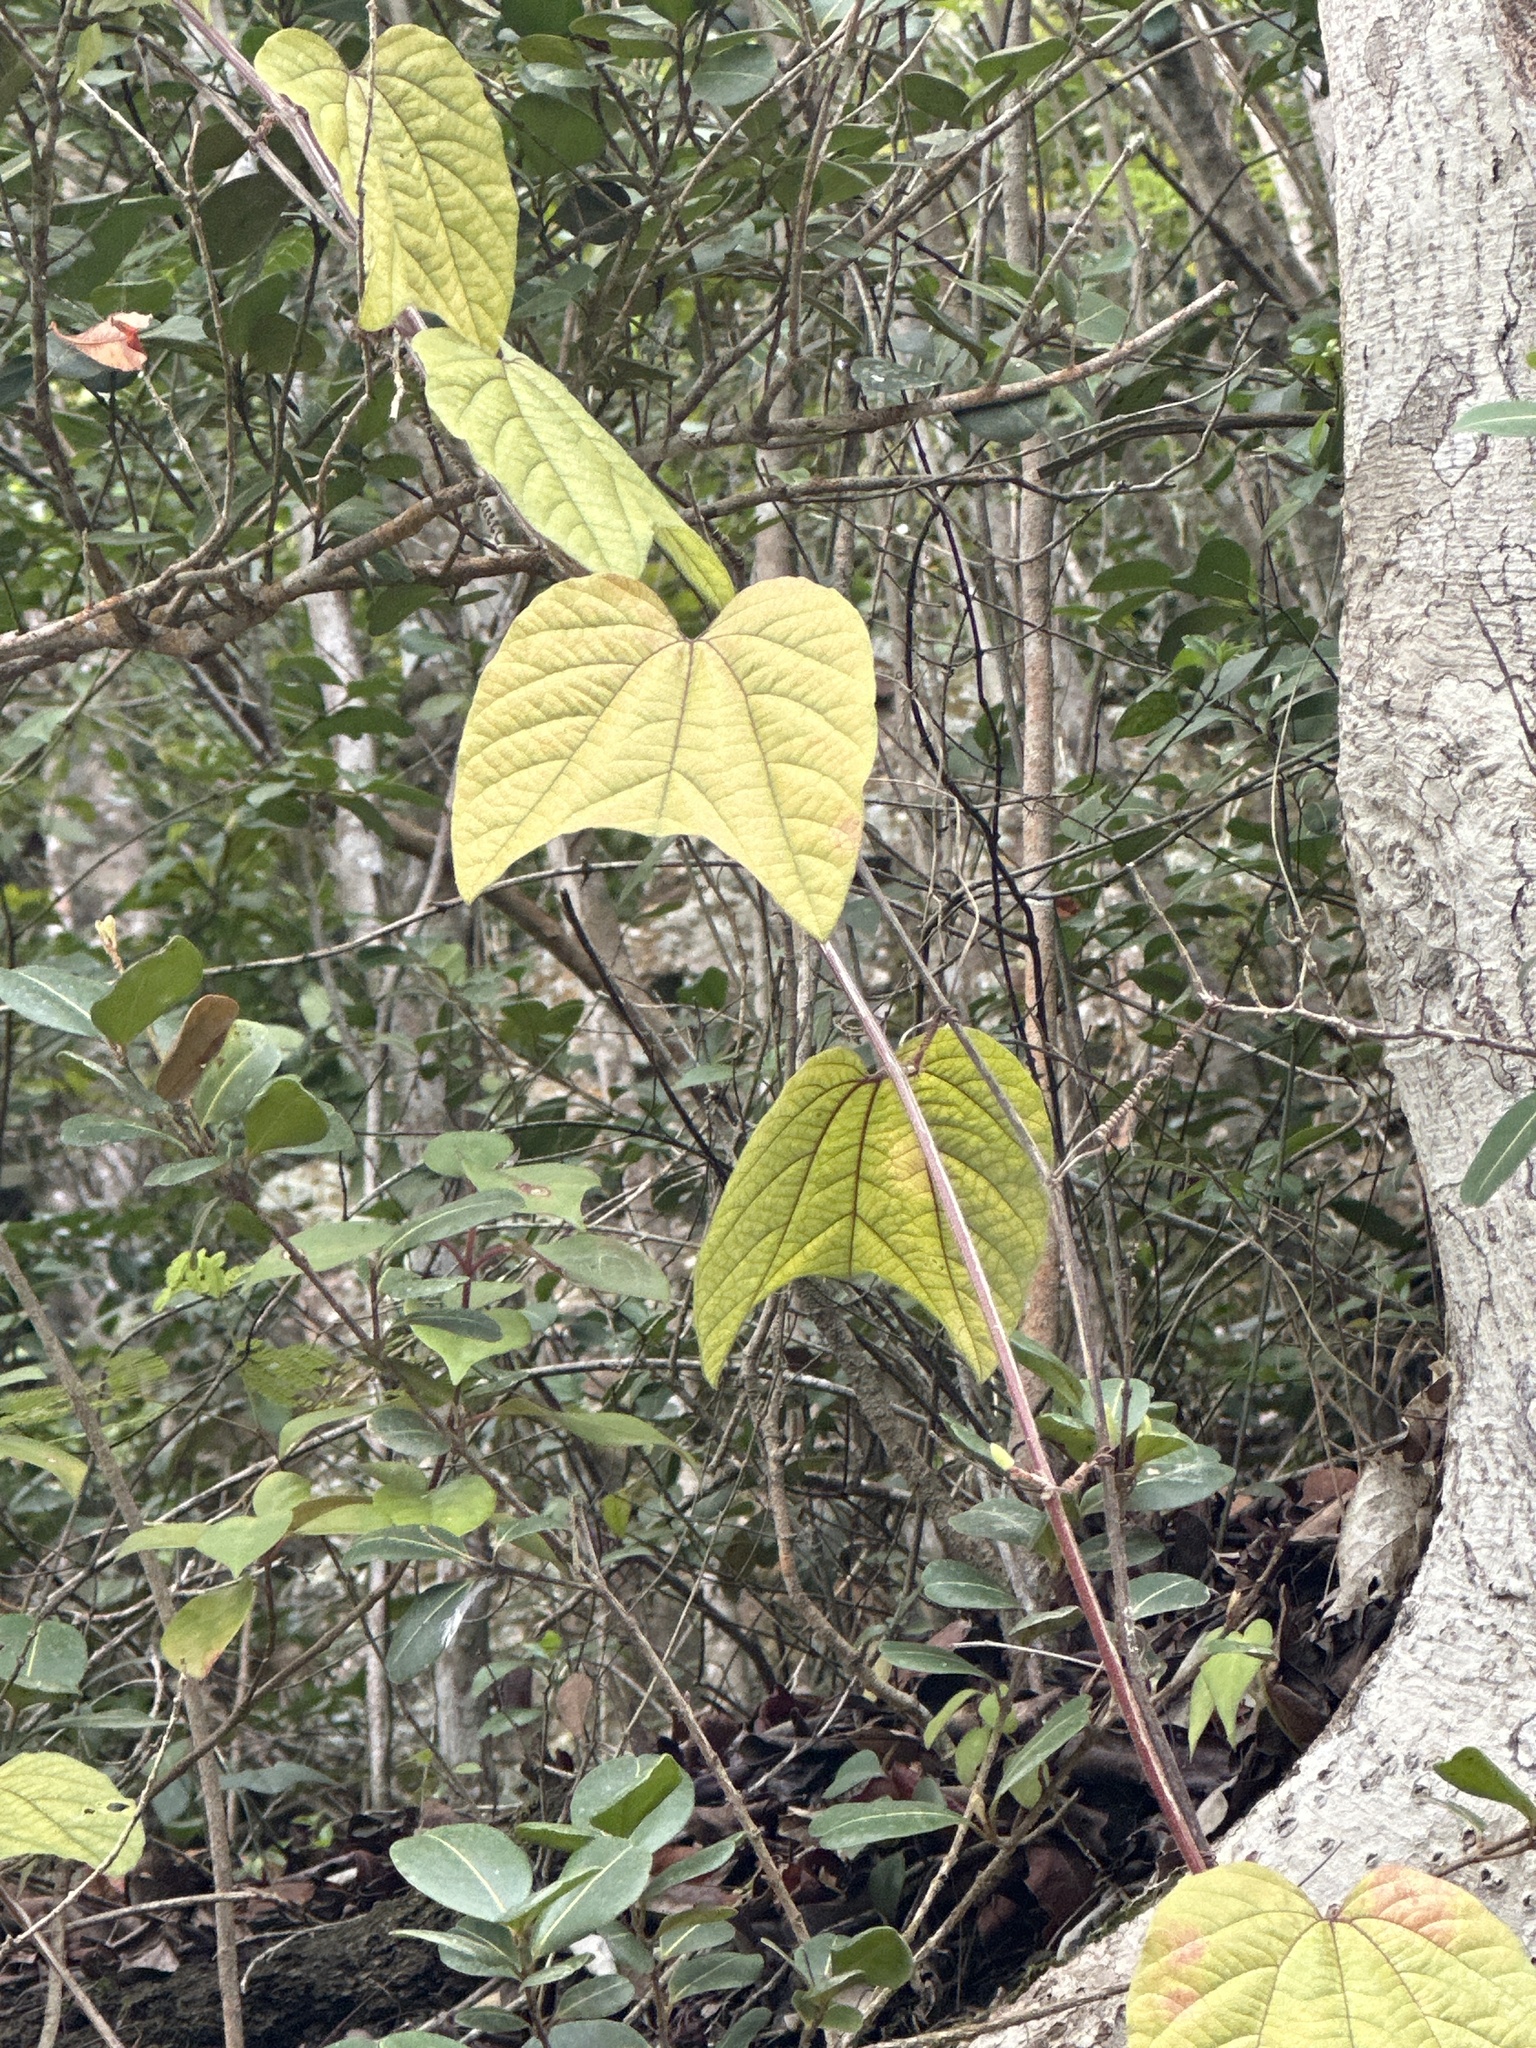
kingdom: Plantae
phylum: Tracheophyta
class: Magnoliopsida
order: Malpighiales
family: Passifloraceae
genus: Passiflora
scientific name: Passiflora rubra
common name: Snakeberry vine
